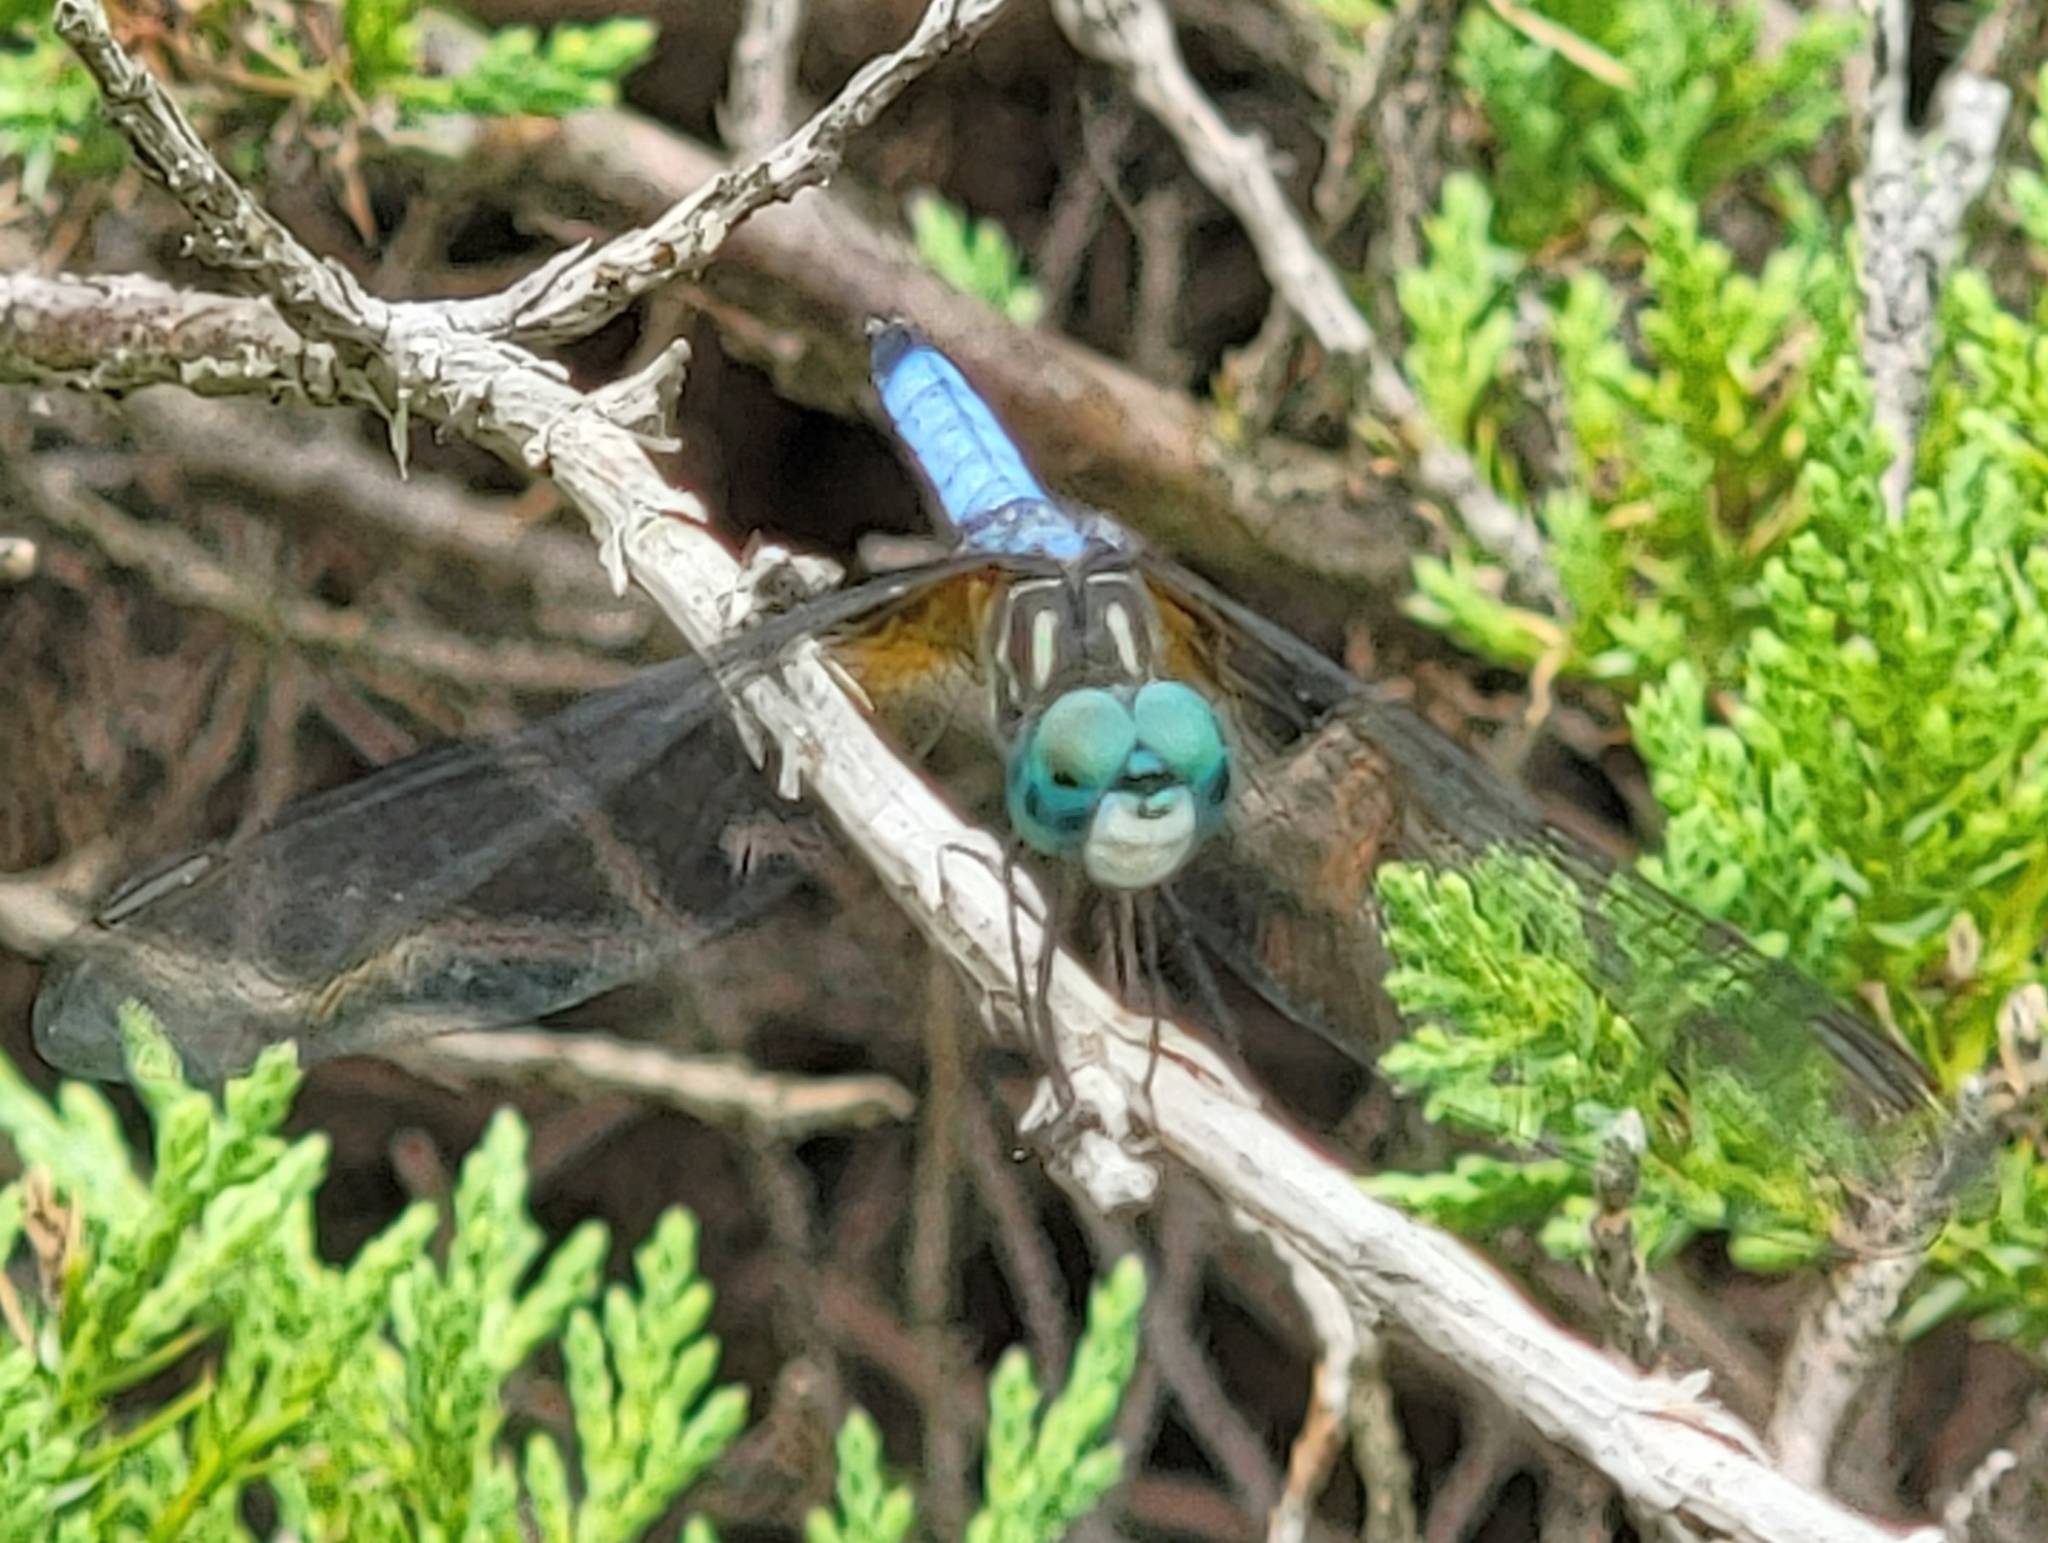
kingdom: Animalia
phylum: Arthropoda
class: Insecta
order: Odonata
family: Libellulidae
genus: Pachydiplax
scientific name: Pachydiplax longipennis
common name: Blue dasher
